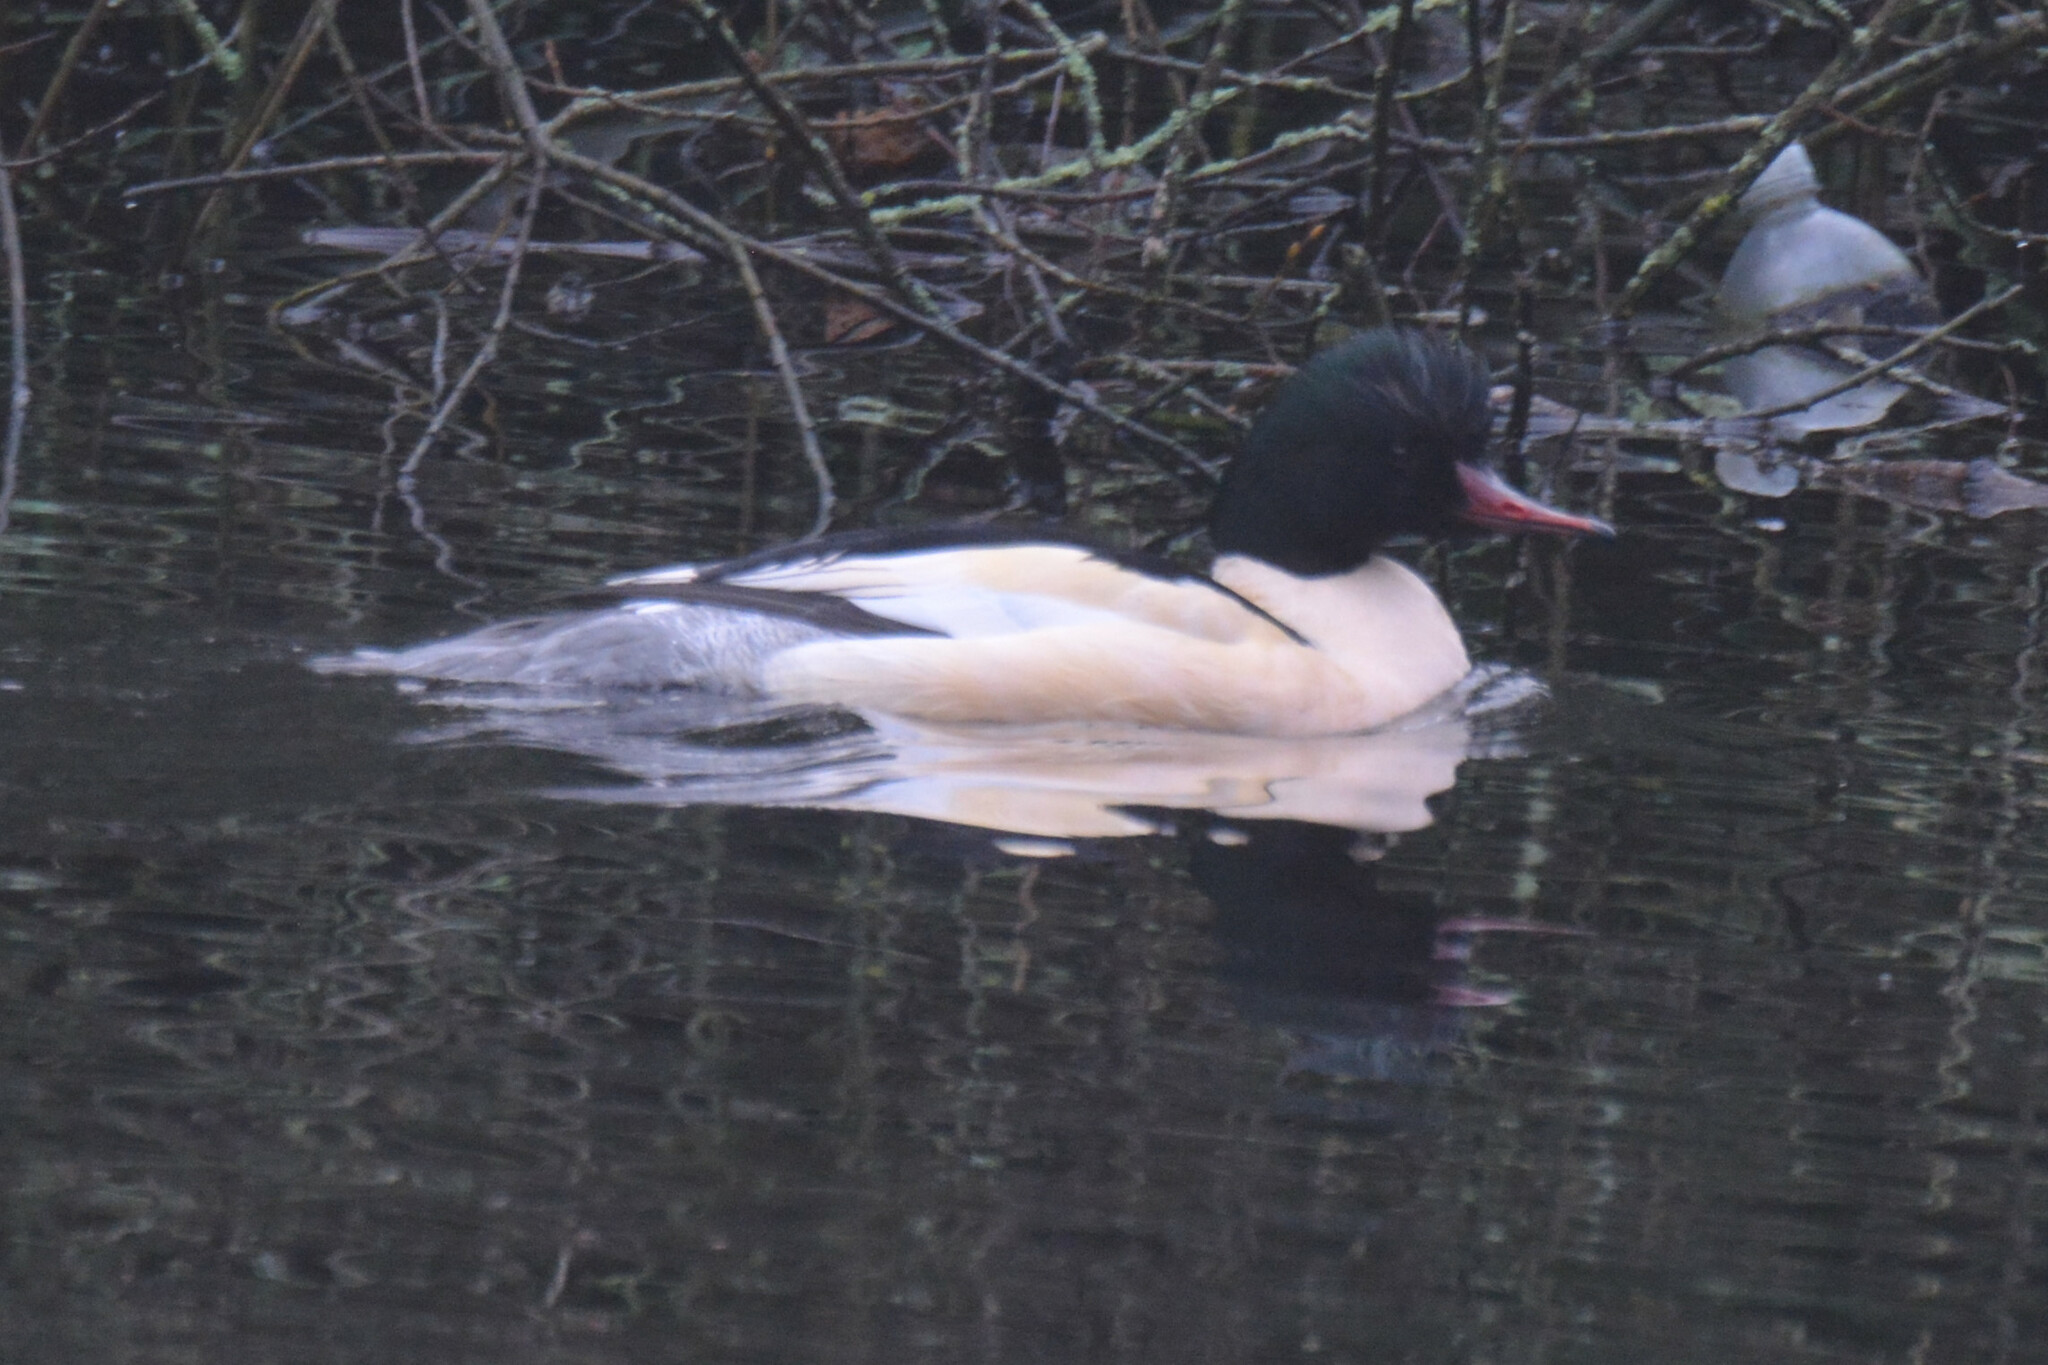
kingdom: Animalia
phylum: Chordata
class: Aves
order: Anseriformes
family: Anatidae
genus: Mergus
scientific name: Mergus merganser
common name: Common merganser
